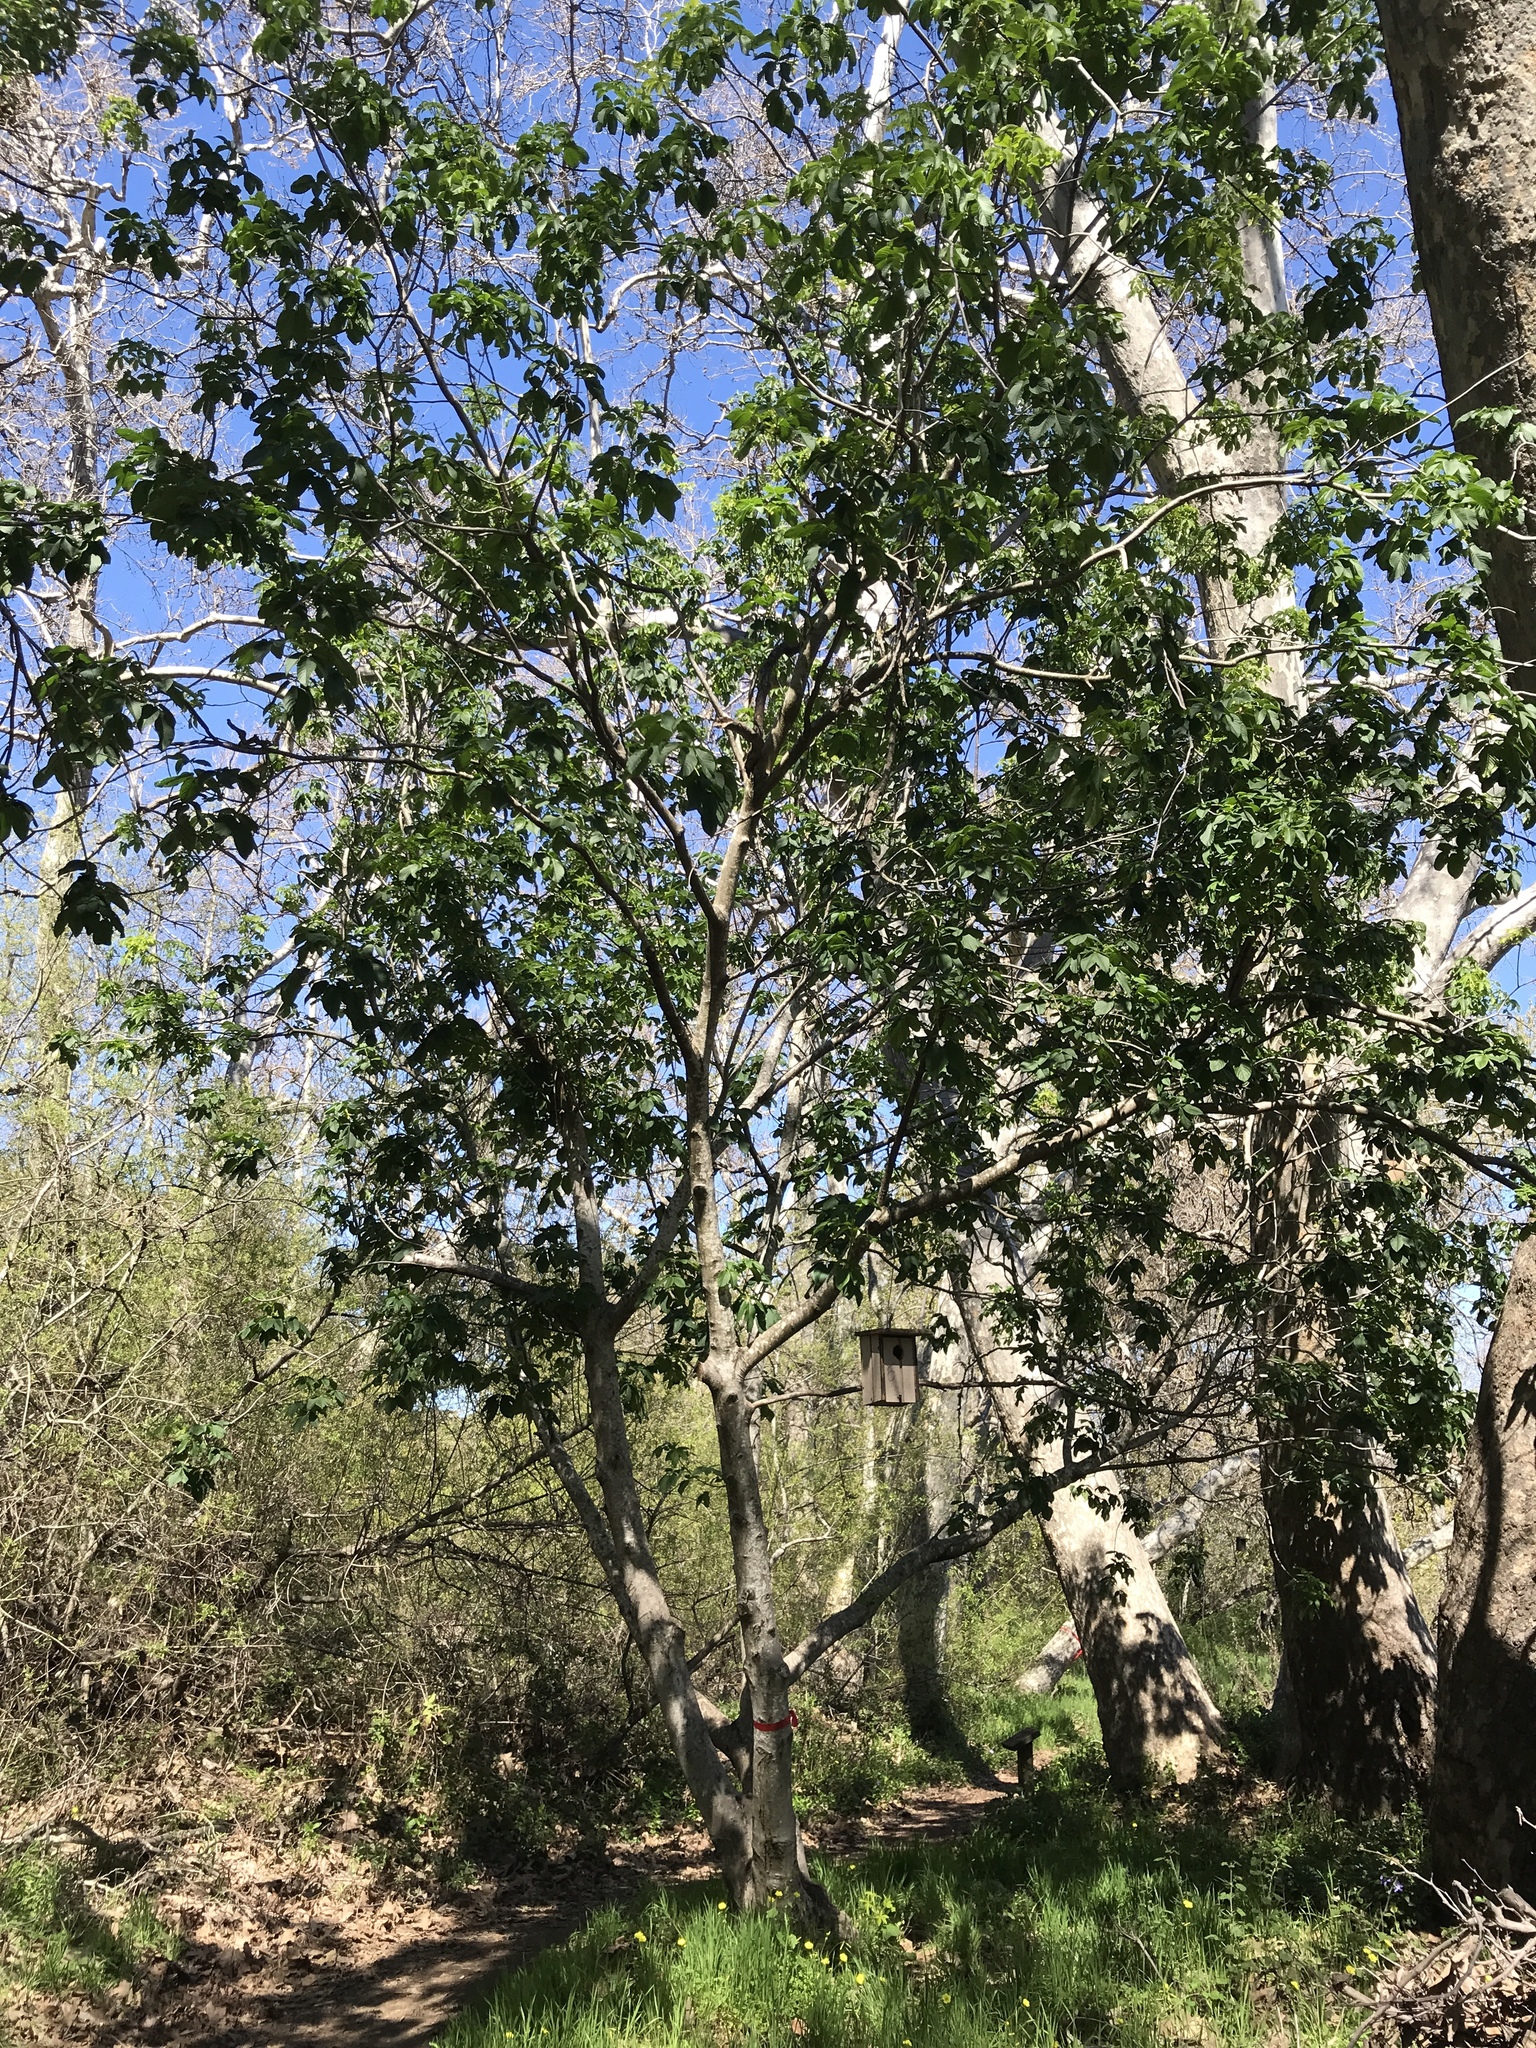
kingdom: Plantae
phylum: Tracheophyta
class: Magnoliopsida
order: Sapindales
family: Sapindaceae
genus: Aesculus
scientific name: Aesculus californica
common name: California buckeye
